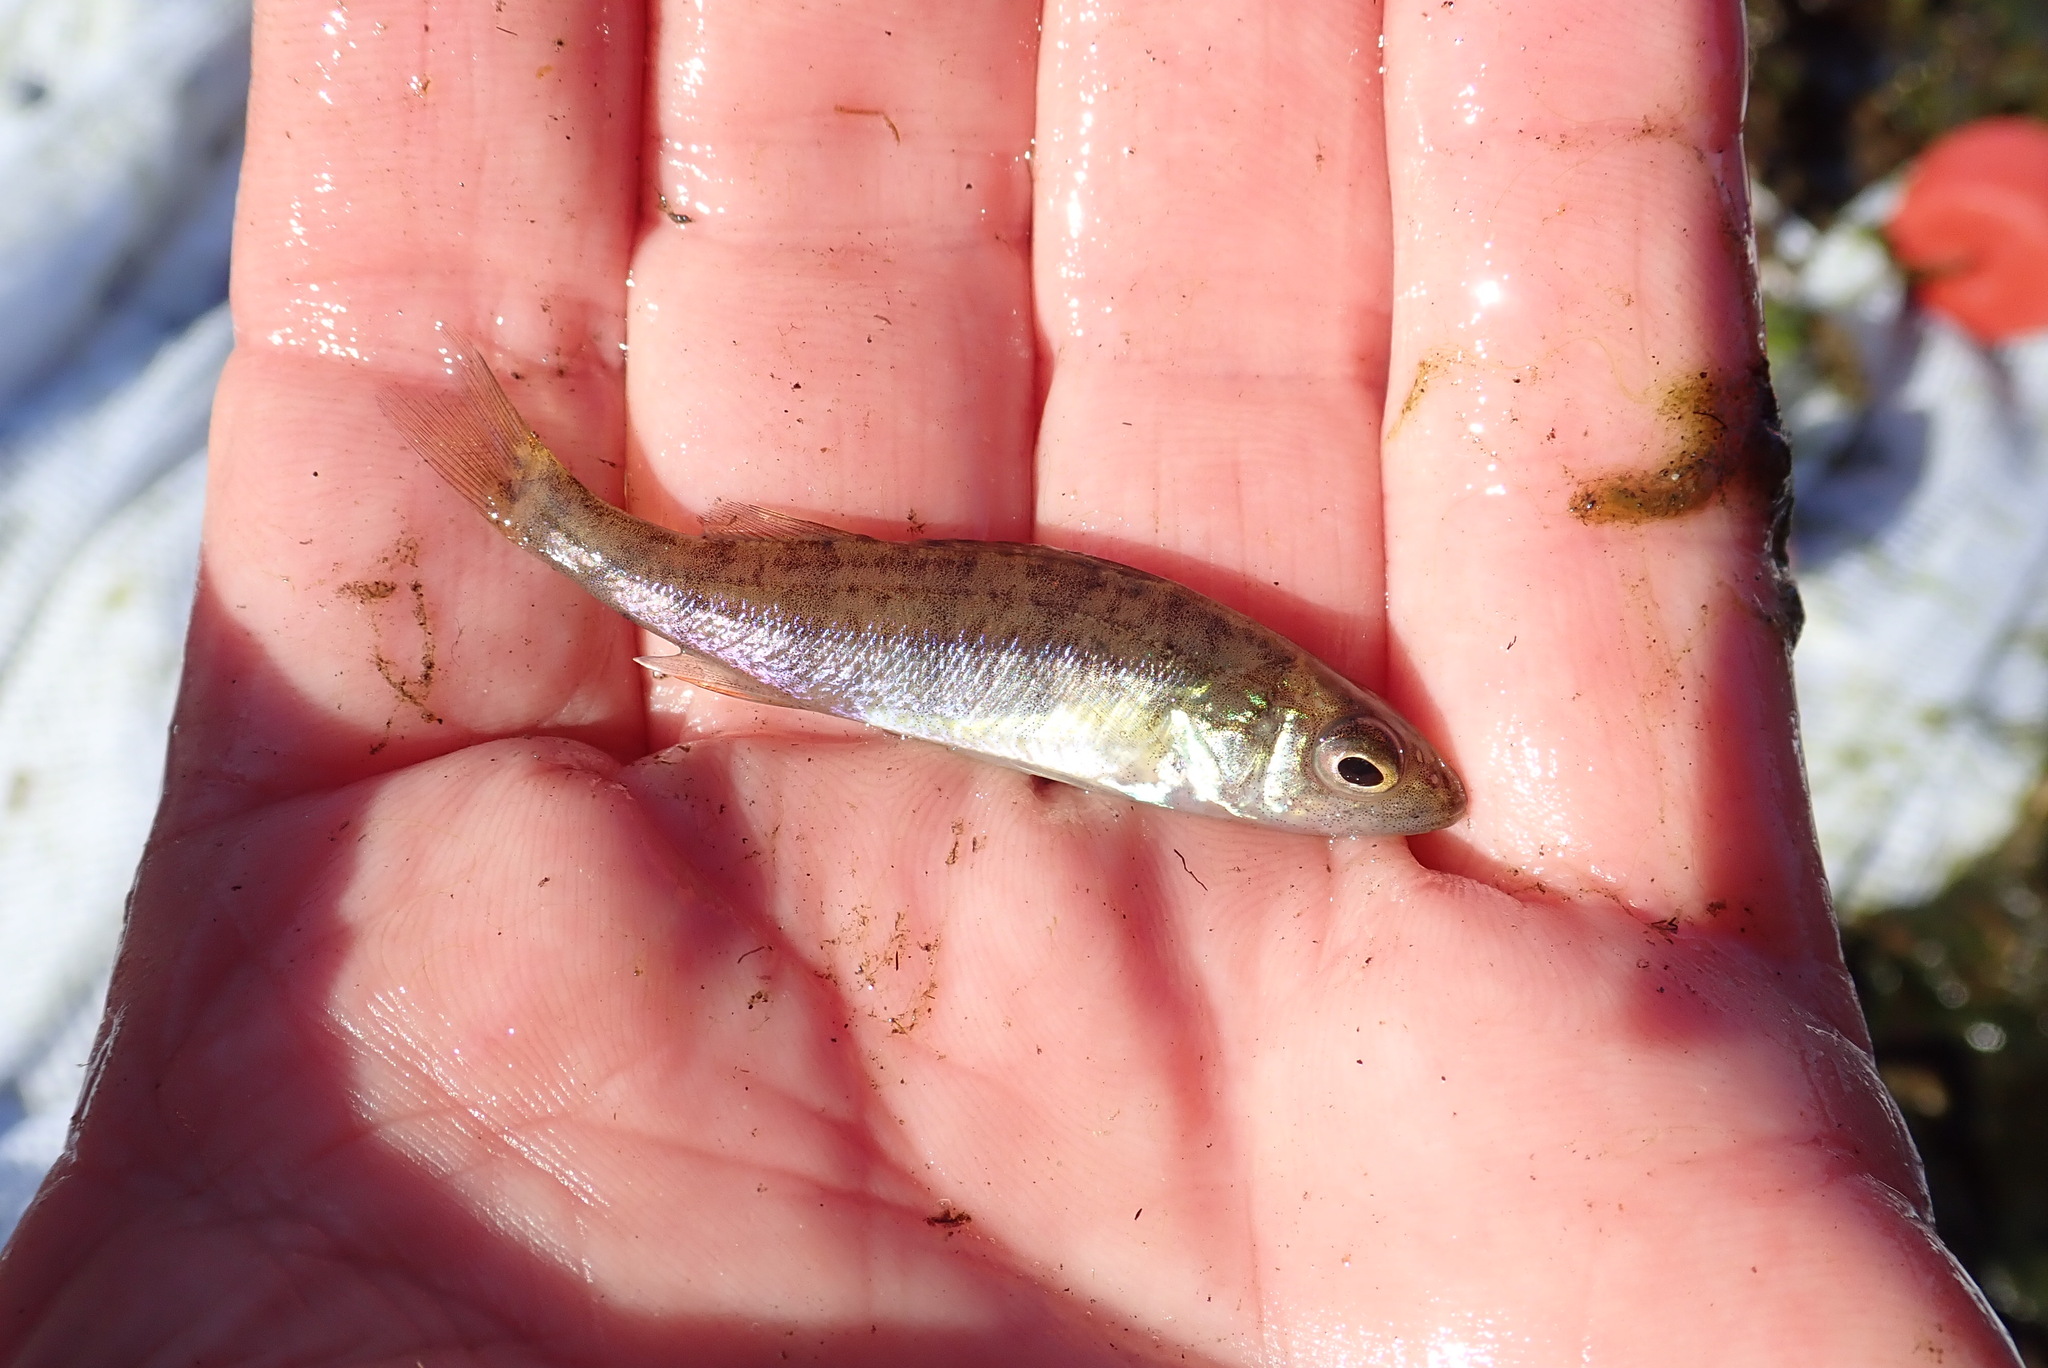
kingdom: Animalia
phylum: Chordata
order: Perciformes
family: Percidae
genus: Perca
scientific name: Perca flavescens
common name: Yellow perch
